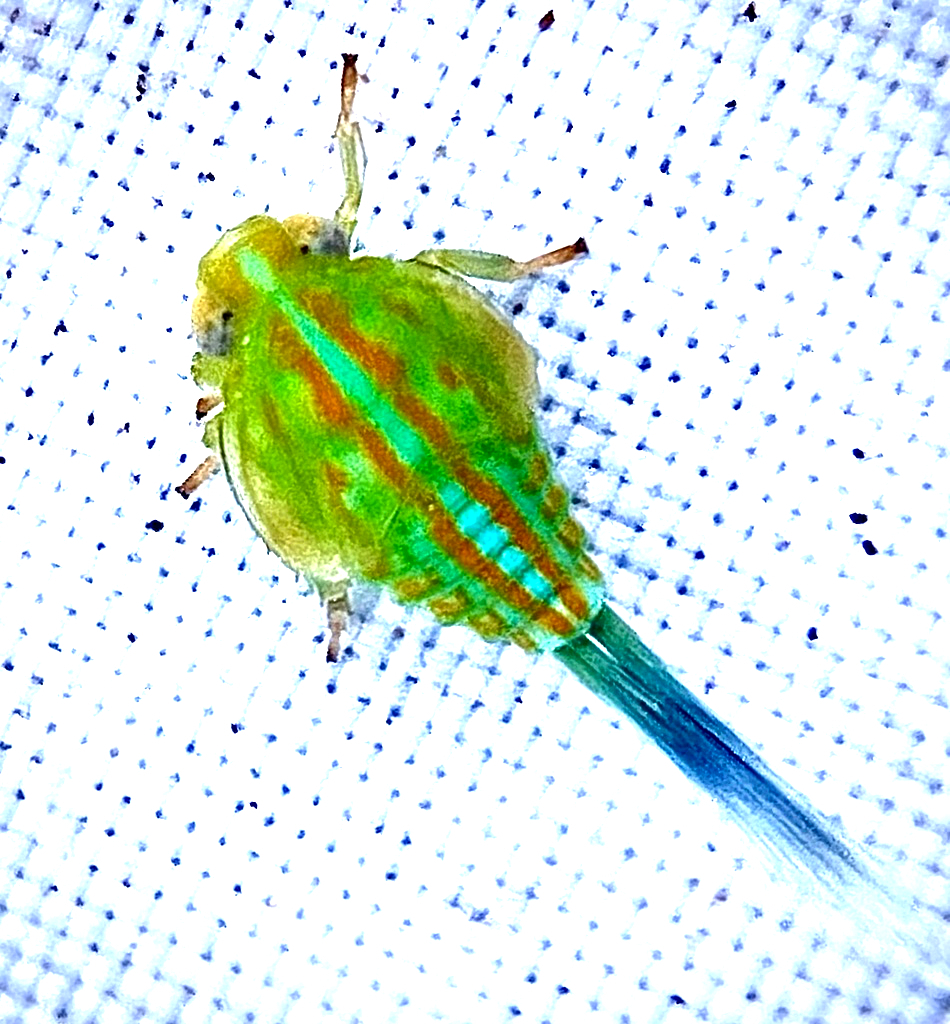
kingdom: Animalia
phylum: Arthropoda
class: Insecta
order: Hemiptera
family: Issidae
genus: Aplos
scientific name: Aplos simplex
